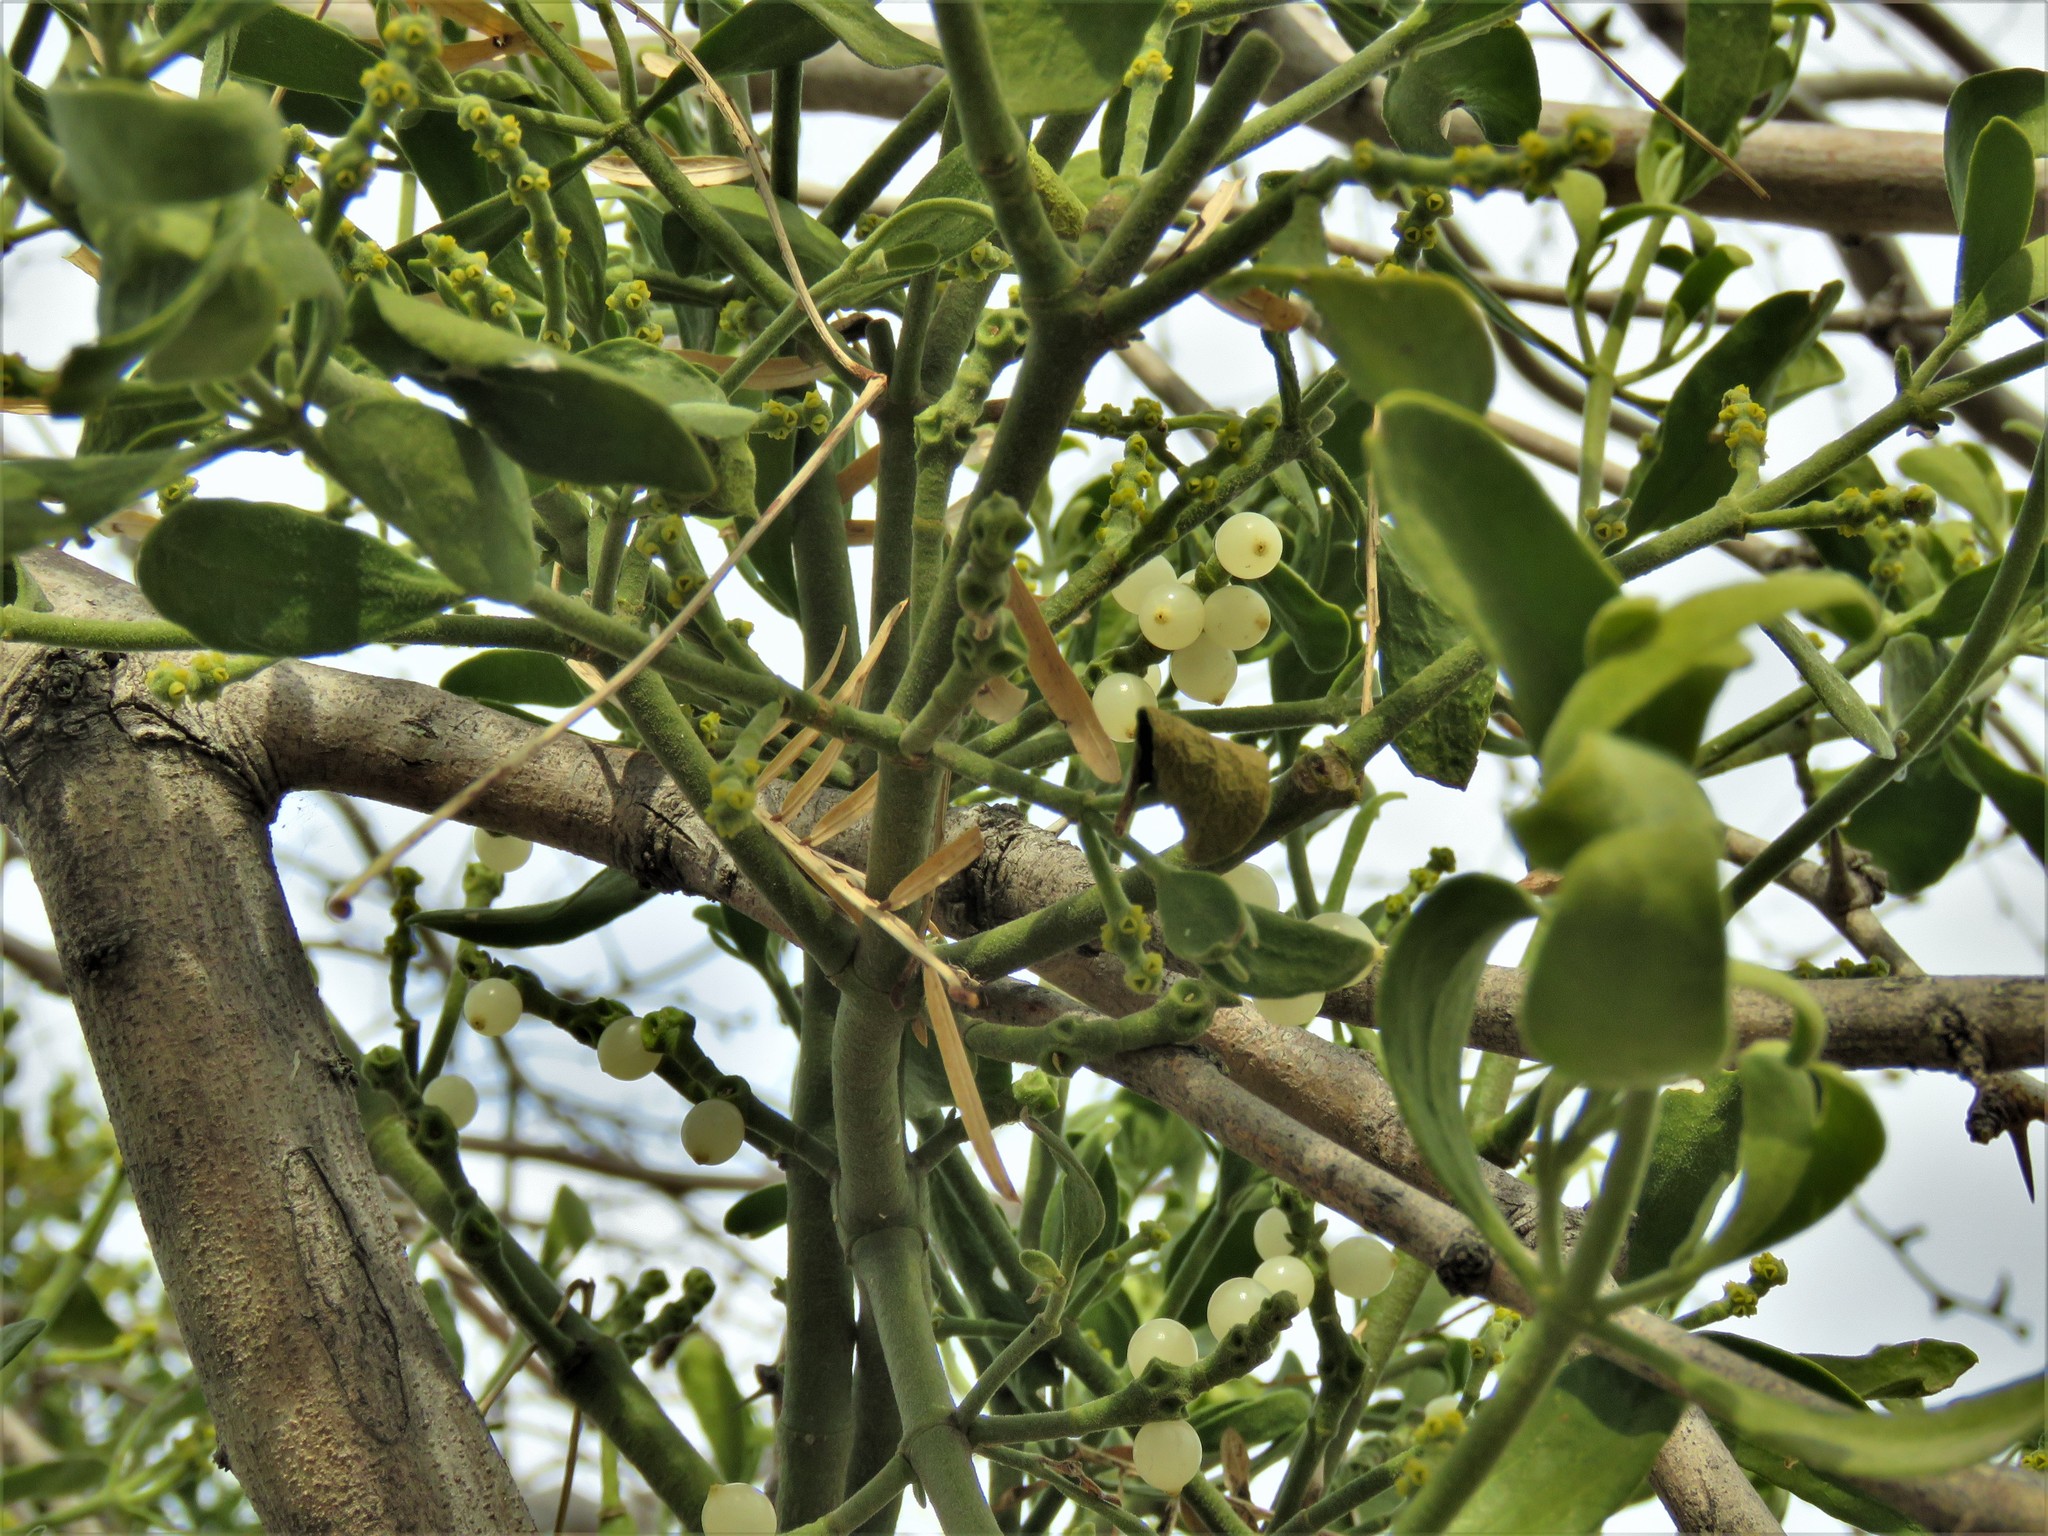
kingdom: Plantae
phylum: Tracheophyta
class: Magnoliopsida
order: Santalales
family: Viscaceae
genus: Phoradendron
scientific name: Phoradendron leucarpum
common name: Pacific mistletoe
